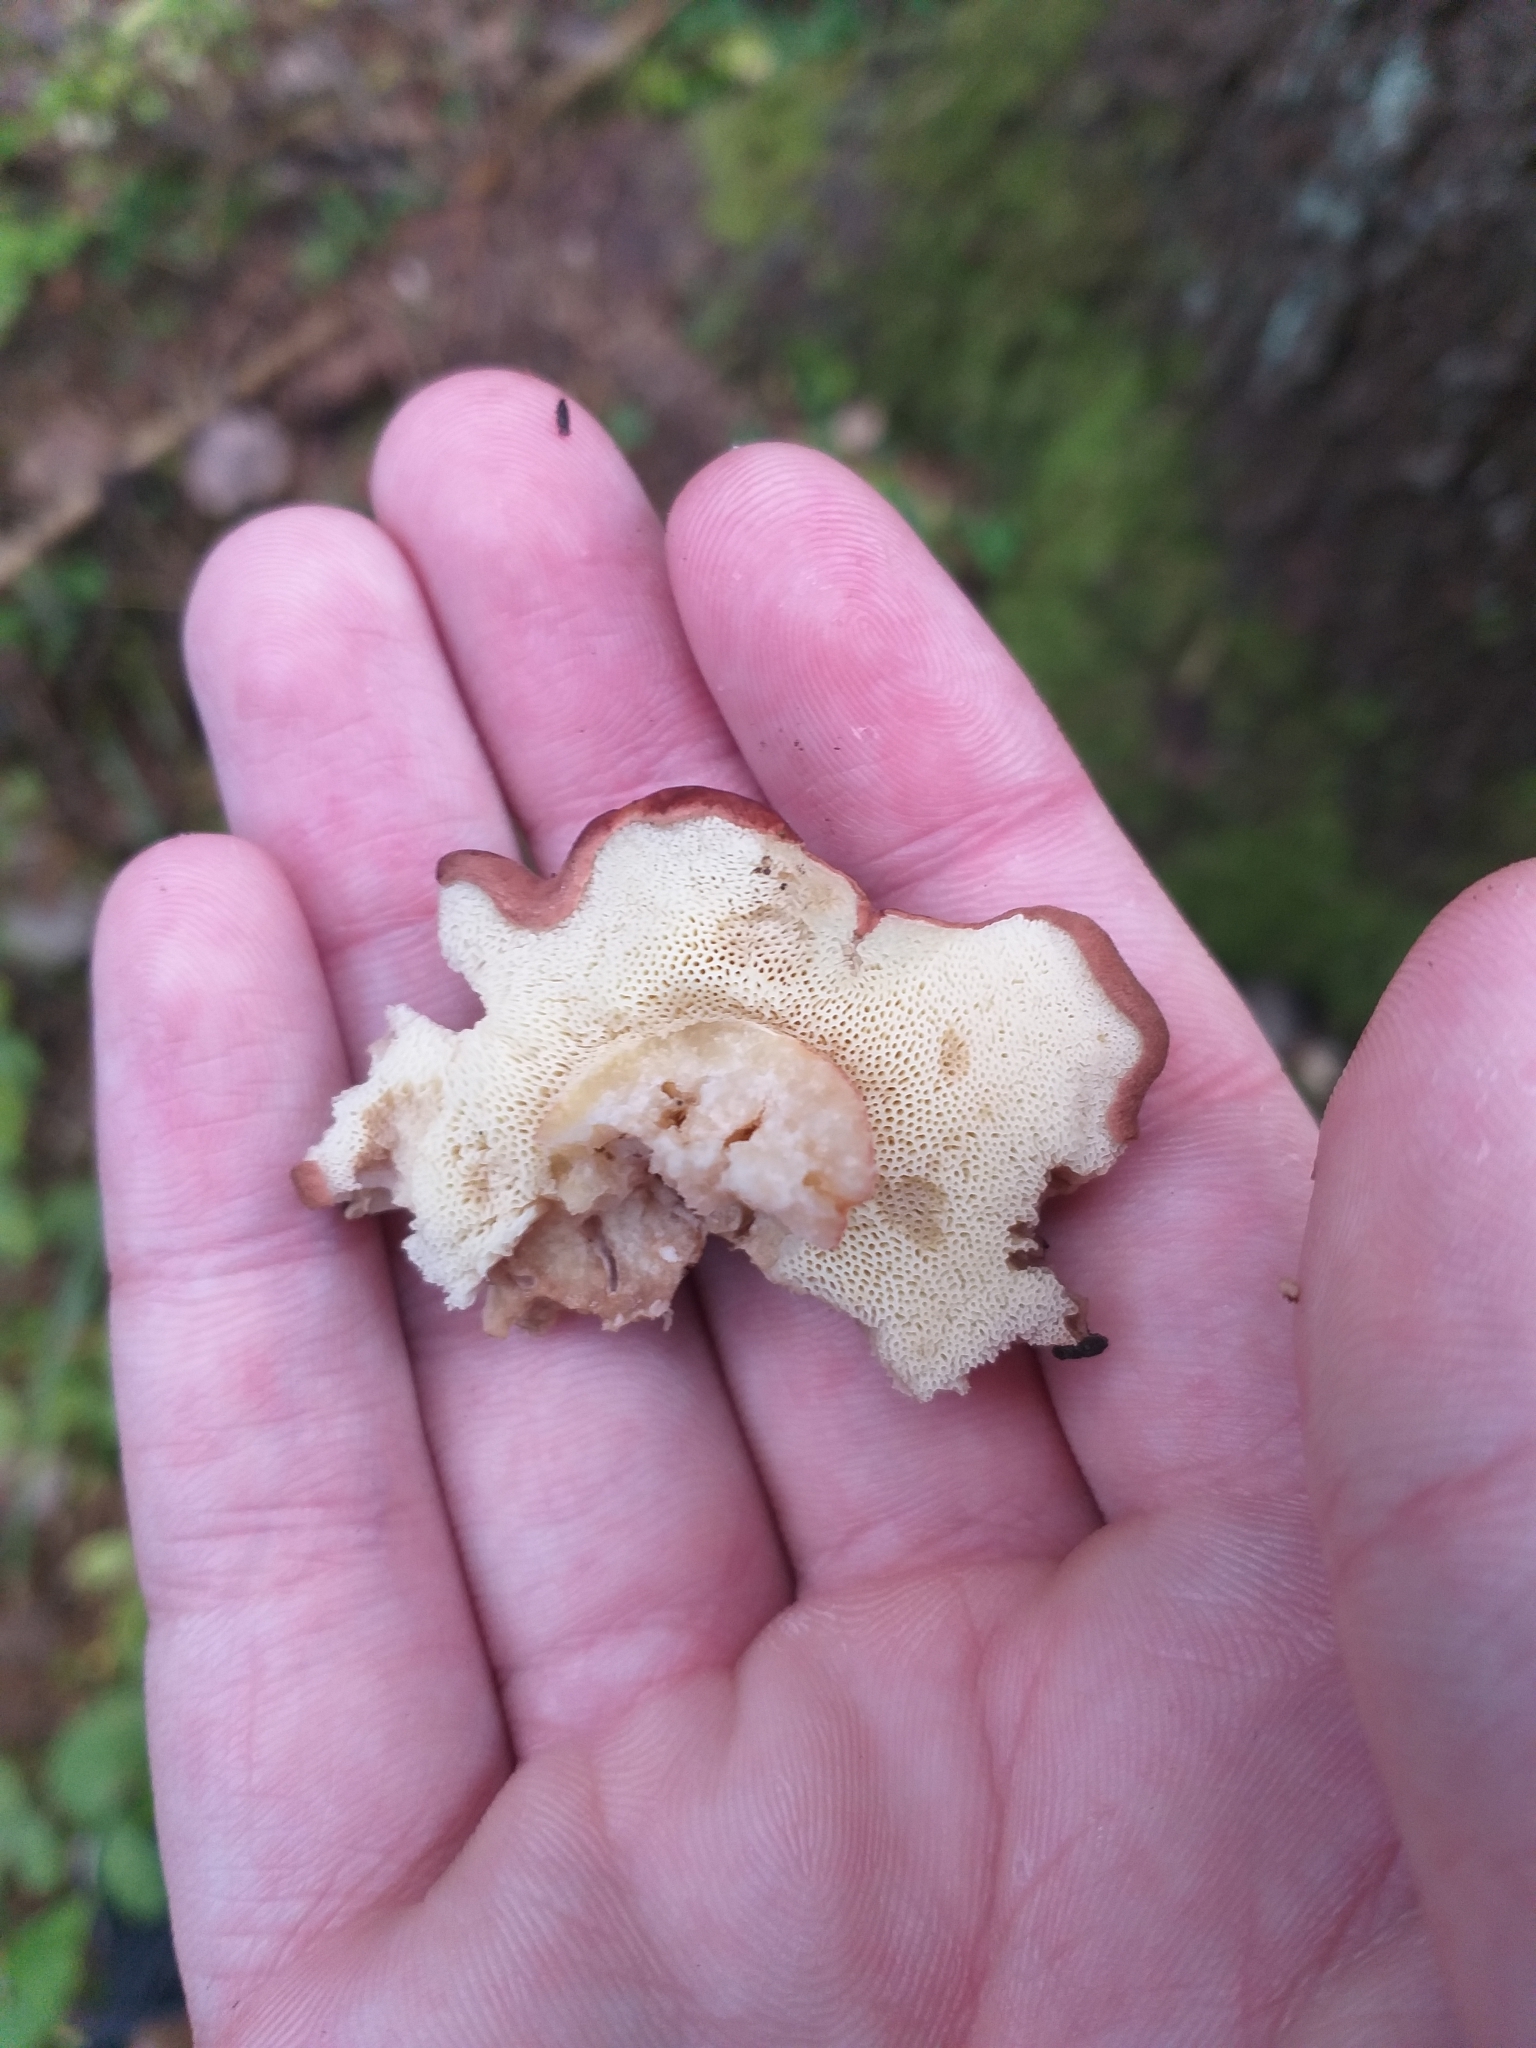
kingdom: Fungi
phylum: Basidiomycota
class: Agaricomycetes
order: Boletales
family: Boletaceae
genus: Imleria
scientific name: Imleria badia
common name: Bay bolete
